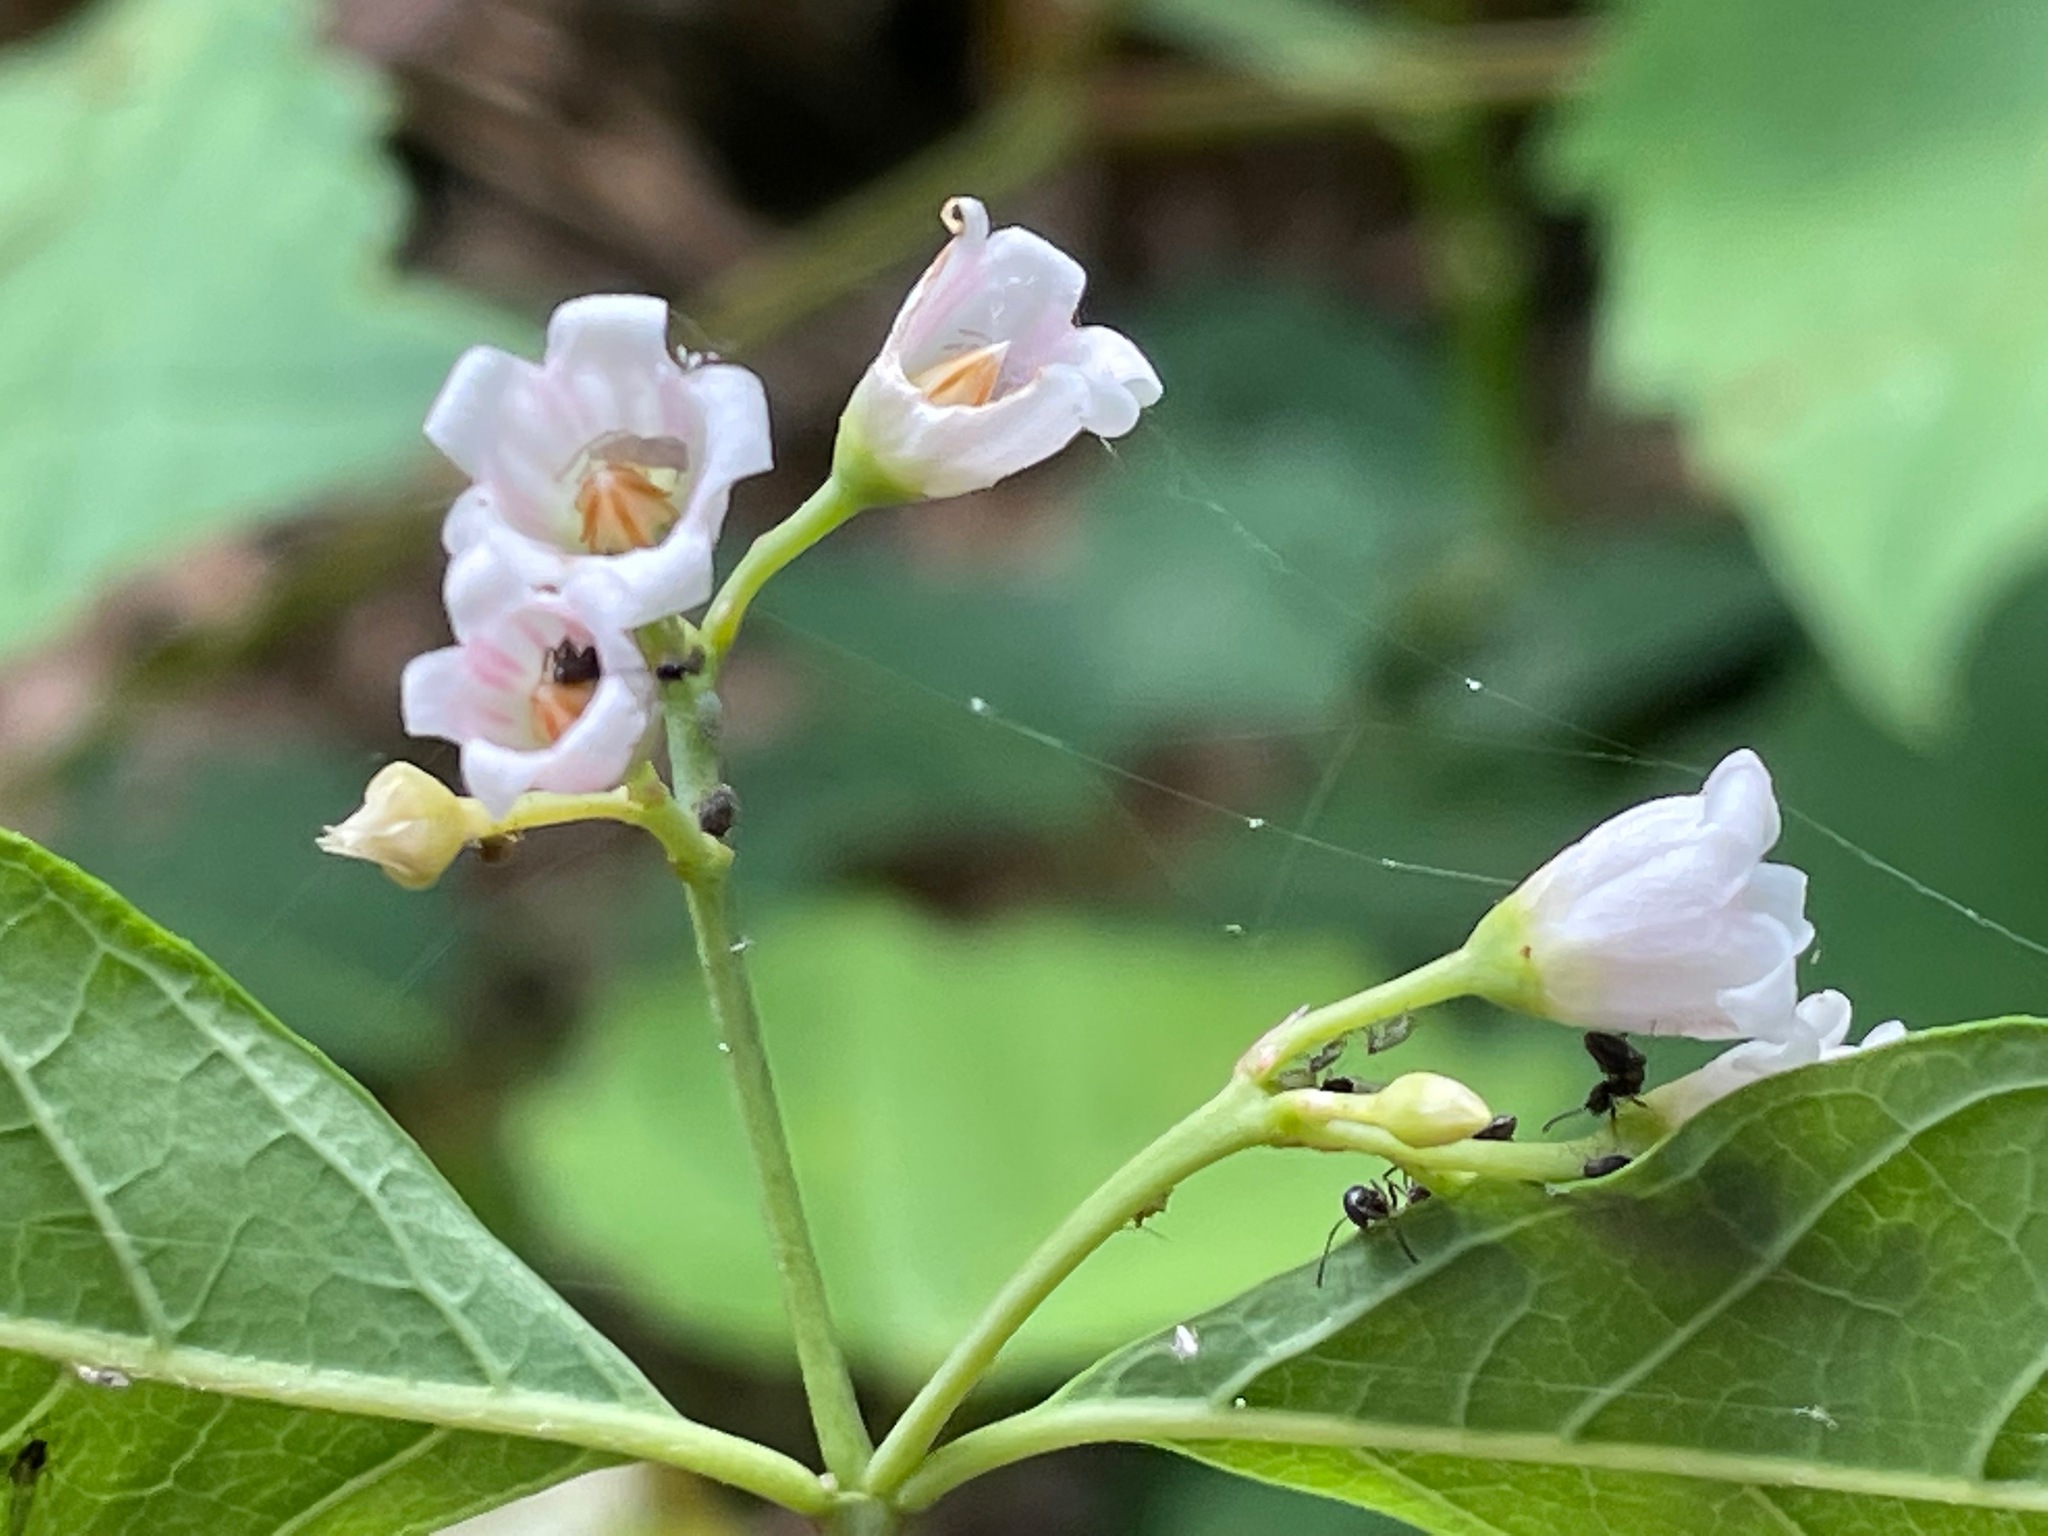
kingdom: Plantae
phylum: Tracheophyta
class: Magnoliopsida
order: Gentianales
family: Apocynaceae
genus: Apocynum
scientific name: Apocynum androsaemifolium
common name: Spreading dogbane
